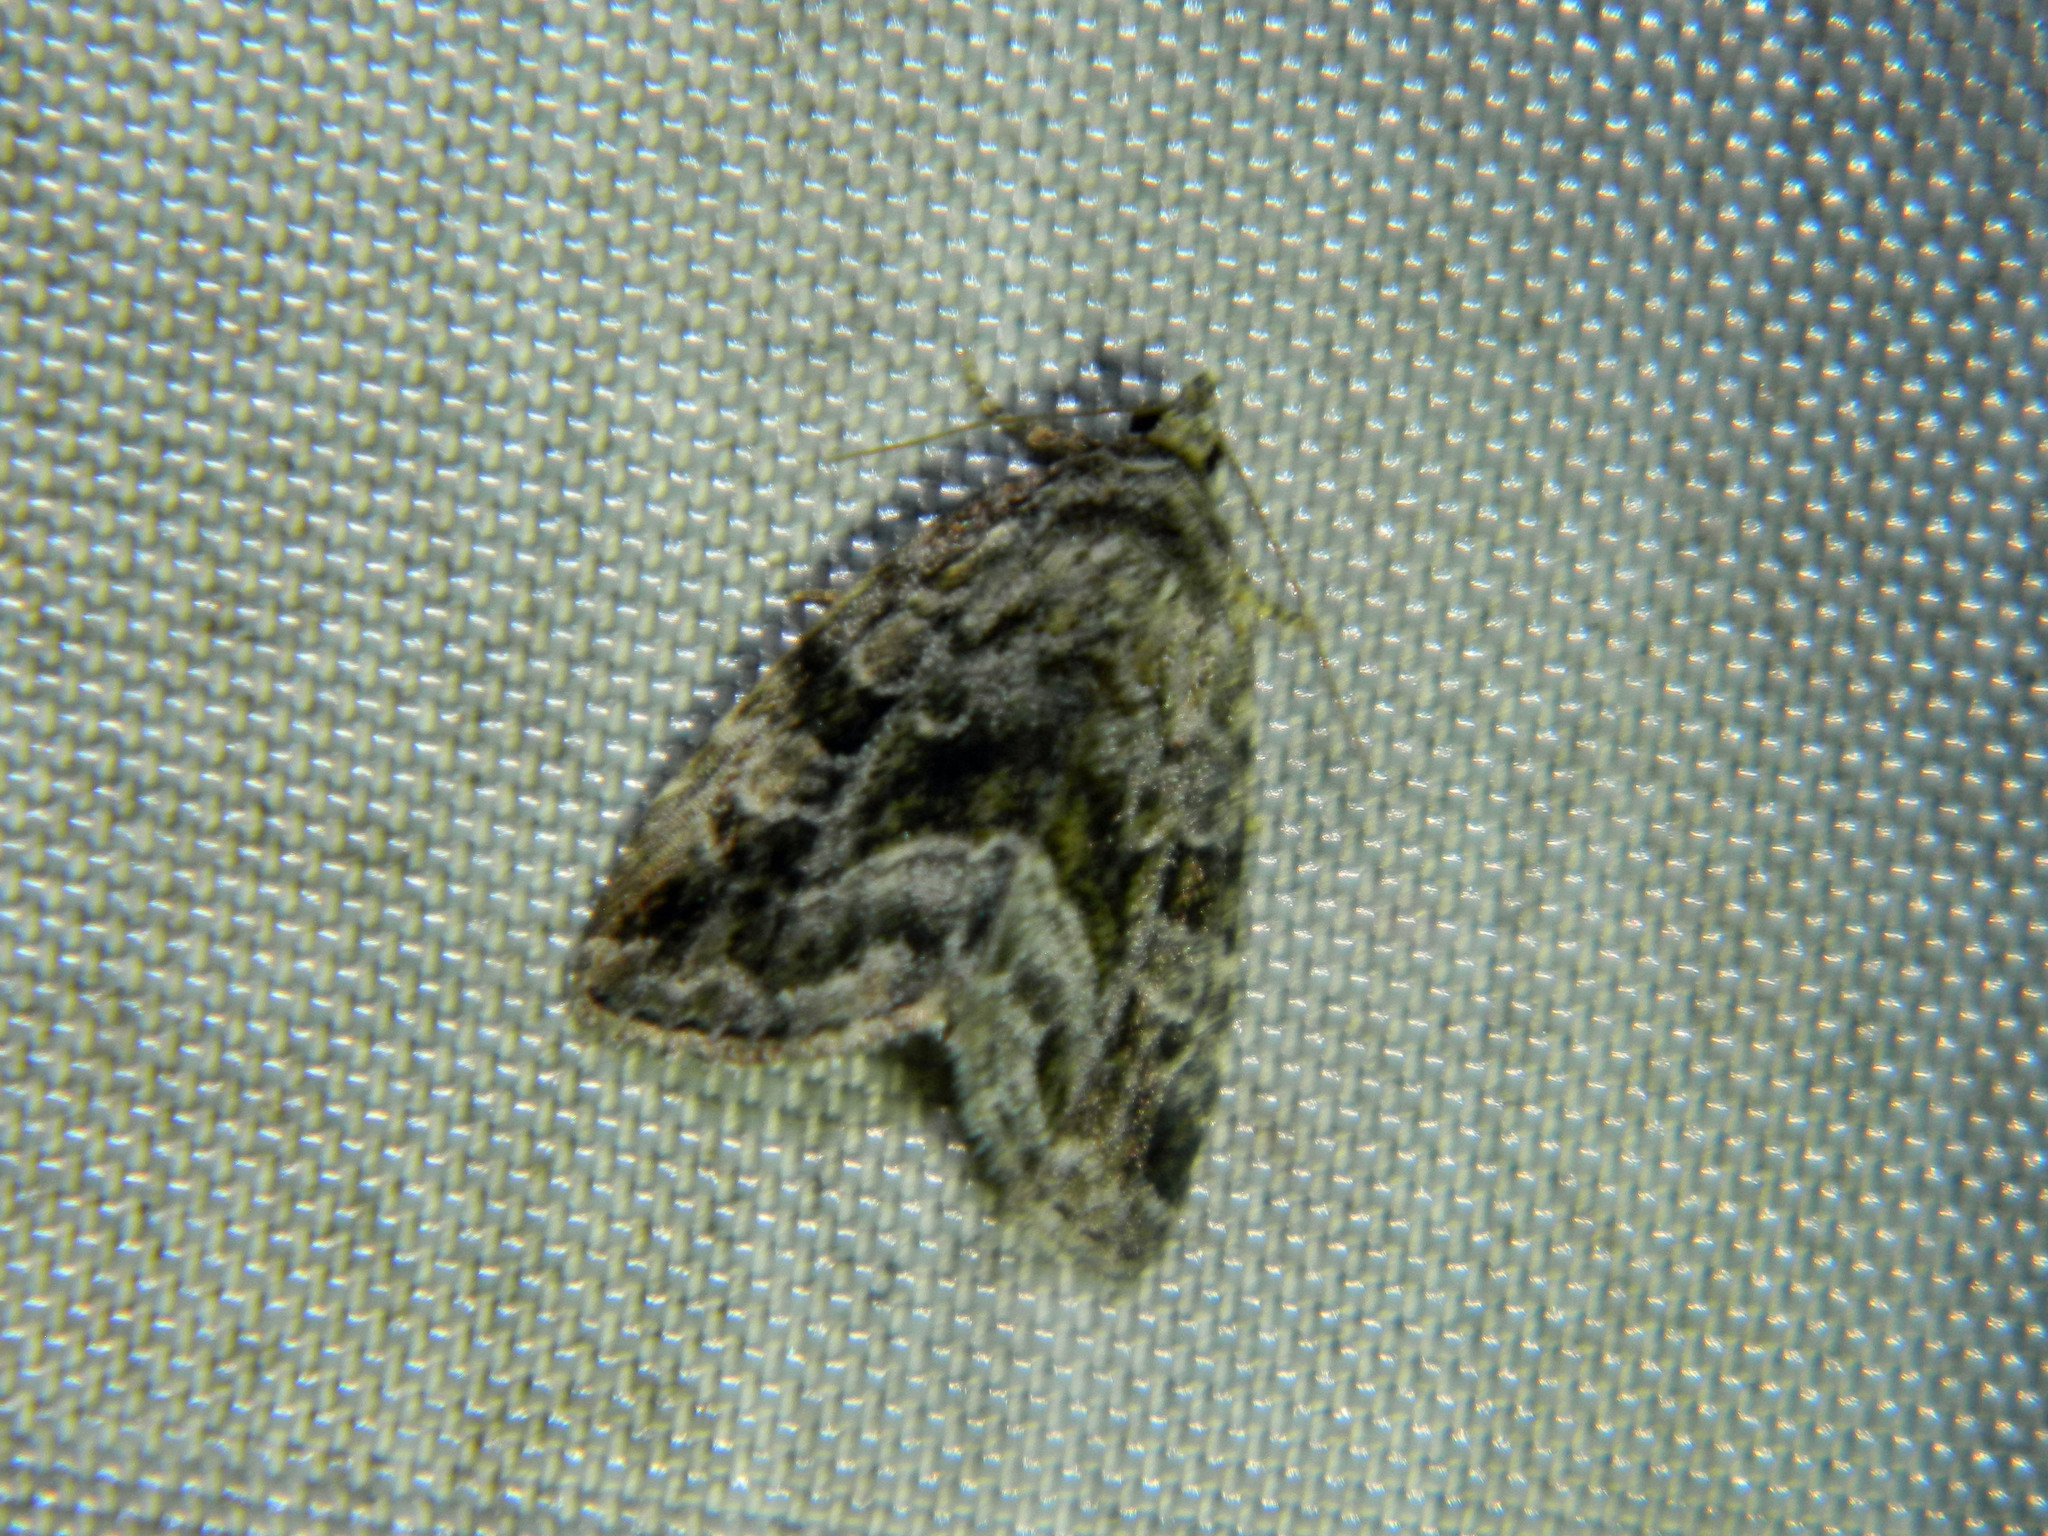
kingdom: Animalia
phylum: Arthropoda
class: Insecta
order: Lepidoptera
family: Noctuidae
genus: Protodeltote
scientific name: Protodeltote muscosula
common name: Large mossy glyph
